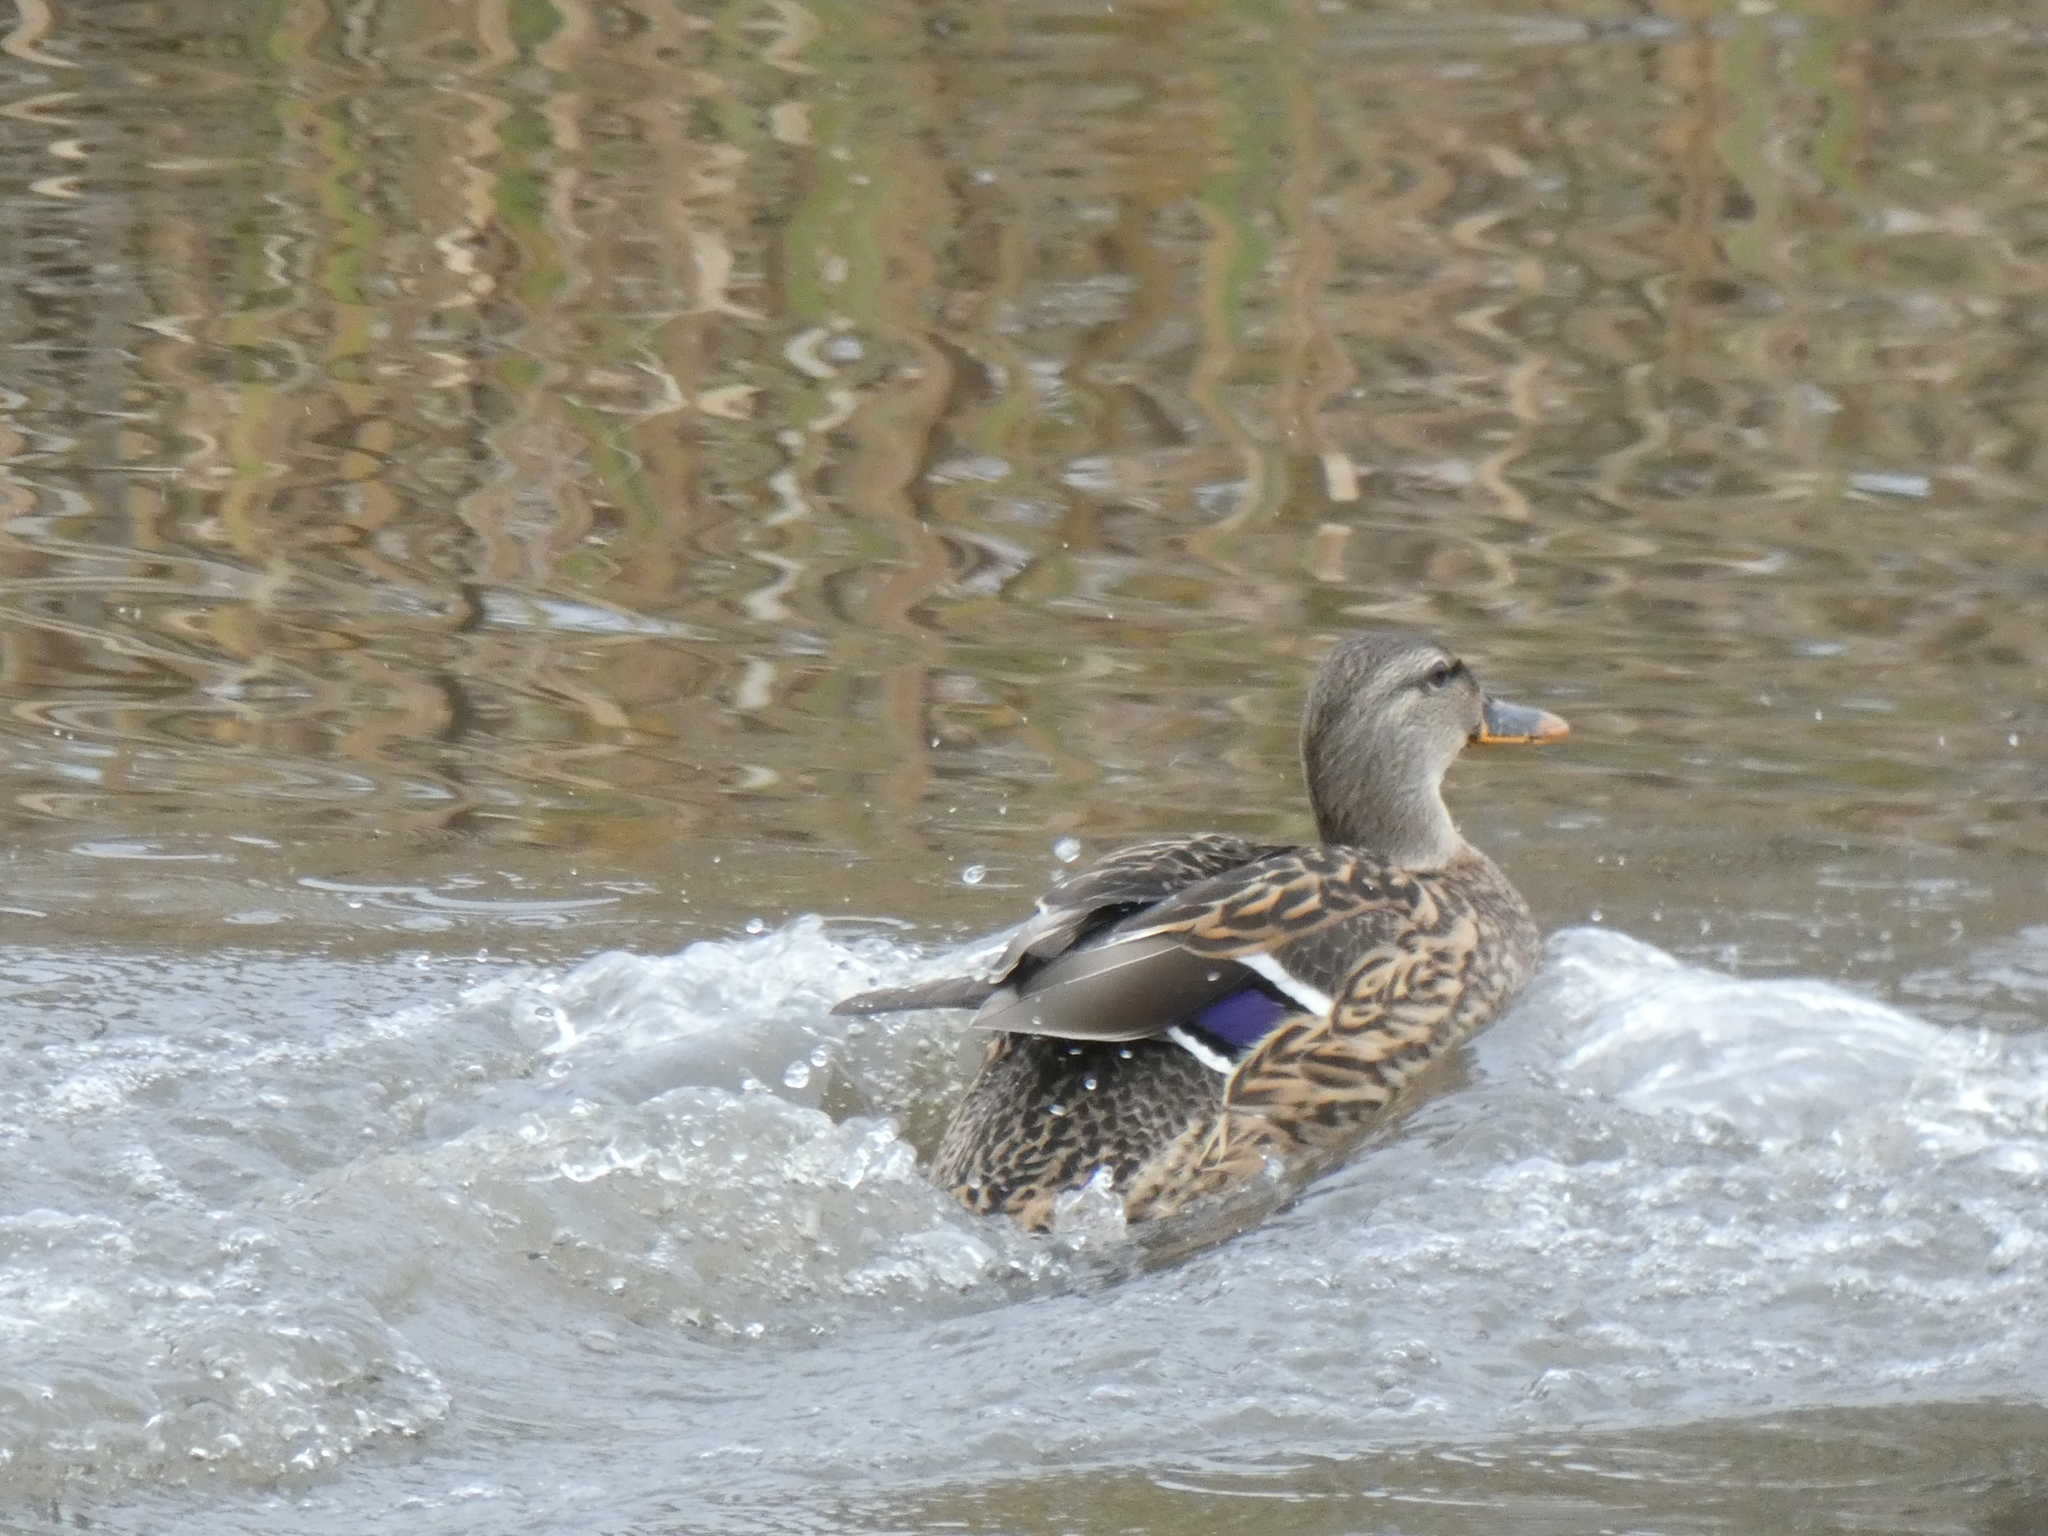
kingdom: Animalia
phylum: Chordata
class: Aves
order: Anseriformes
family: Anatidae
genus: Anas
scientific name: Anas platyrhynchos
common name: Mallard
